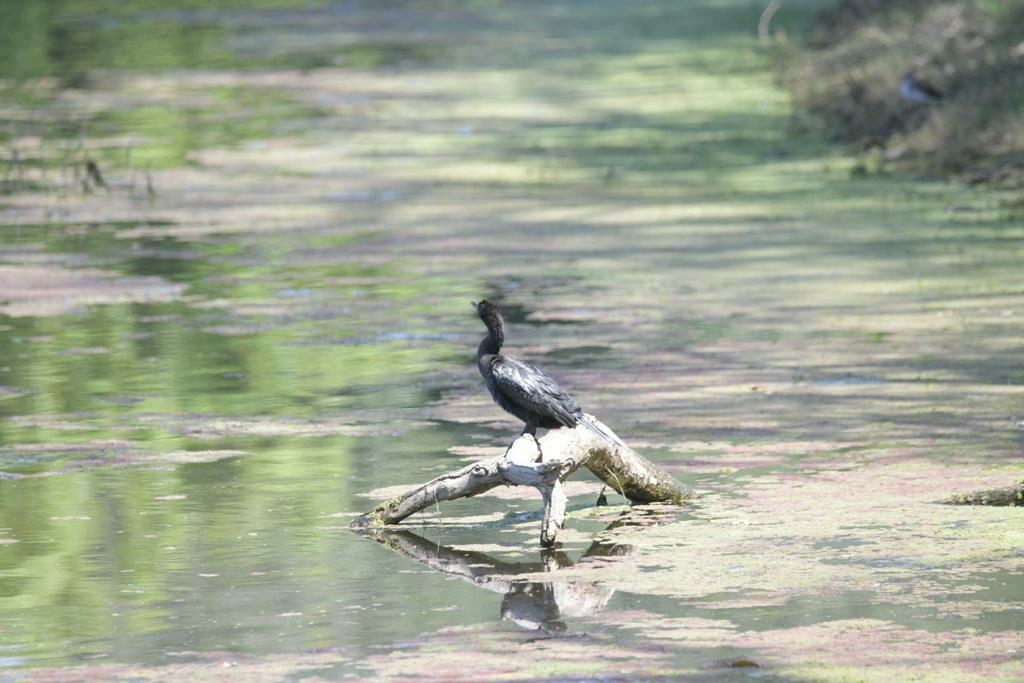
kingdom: Animalia
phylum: Chordata
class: Aves
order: Suliformes
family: Phalacrocoracidae
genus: Microcarbo
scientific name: Microcarbo niger
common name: Little cormorant
